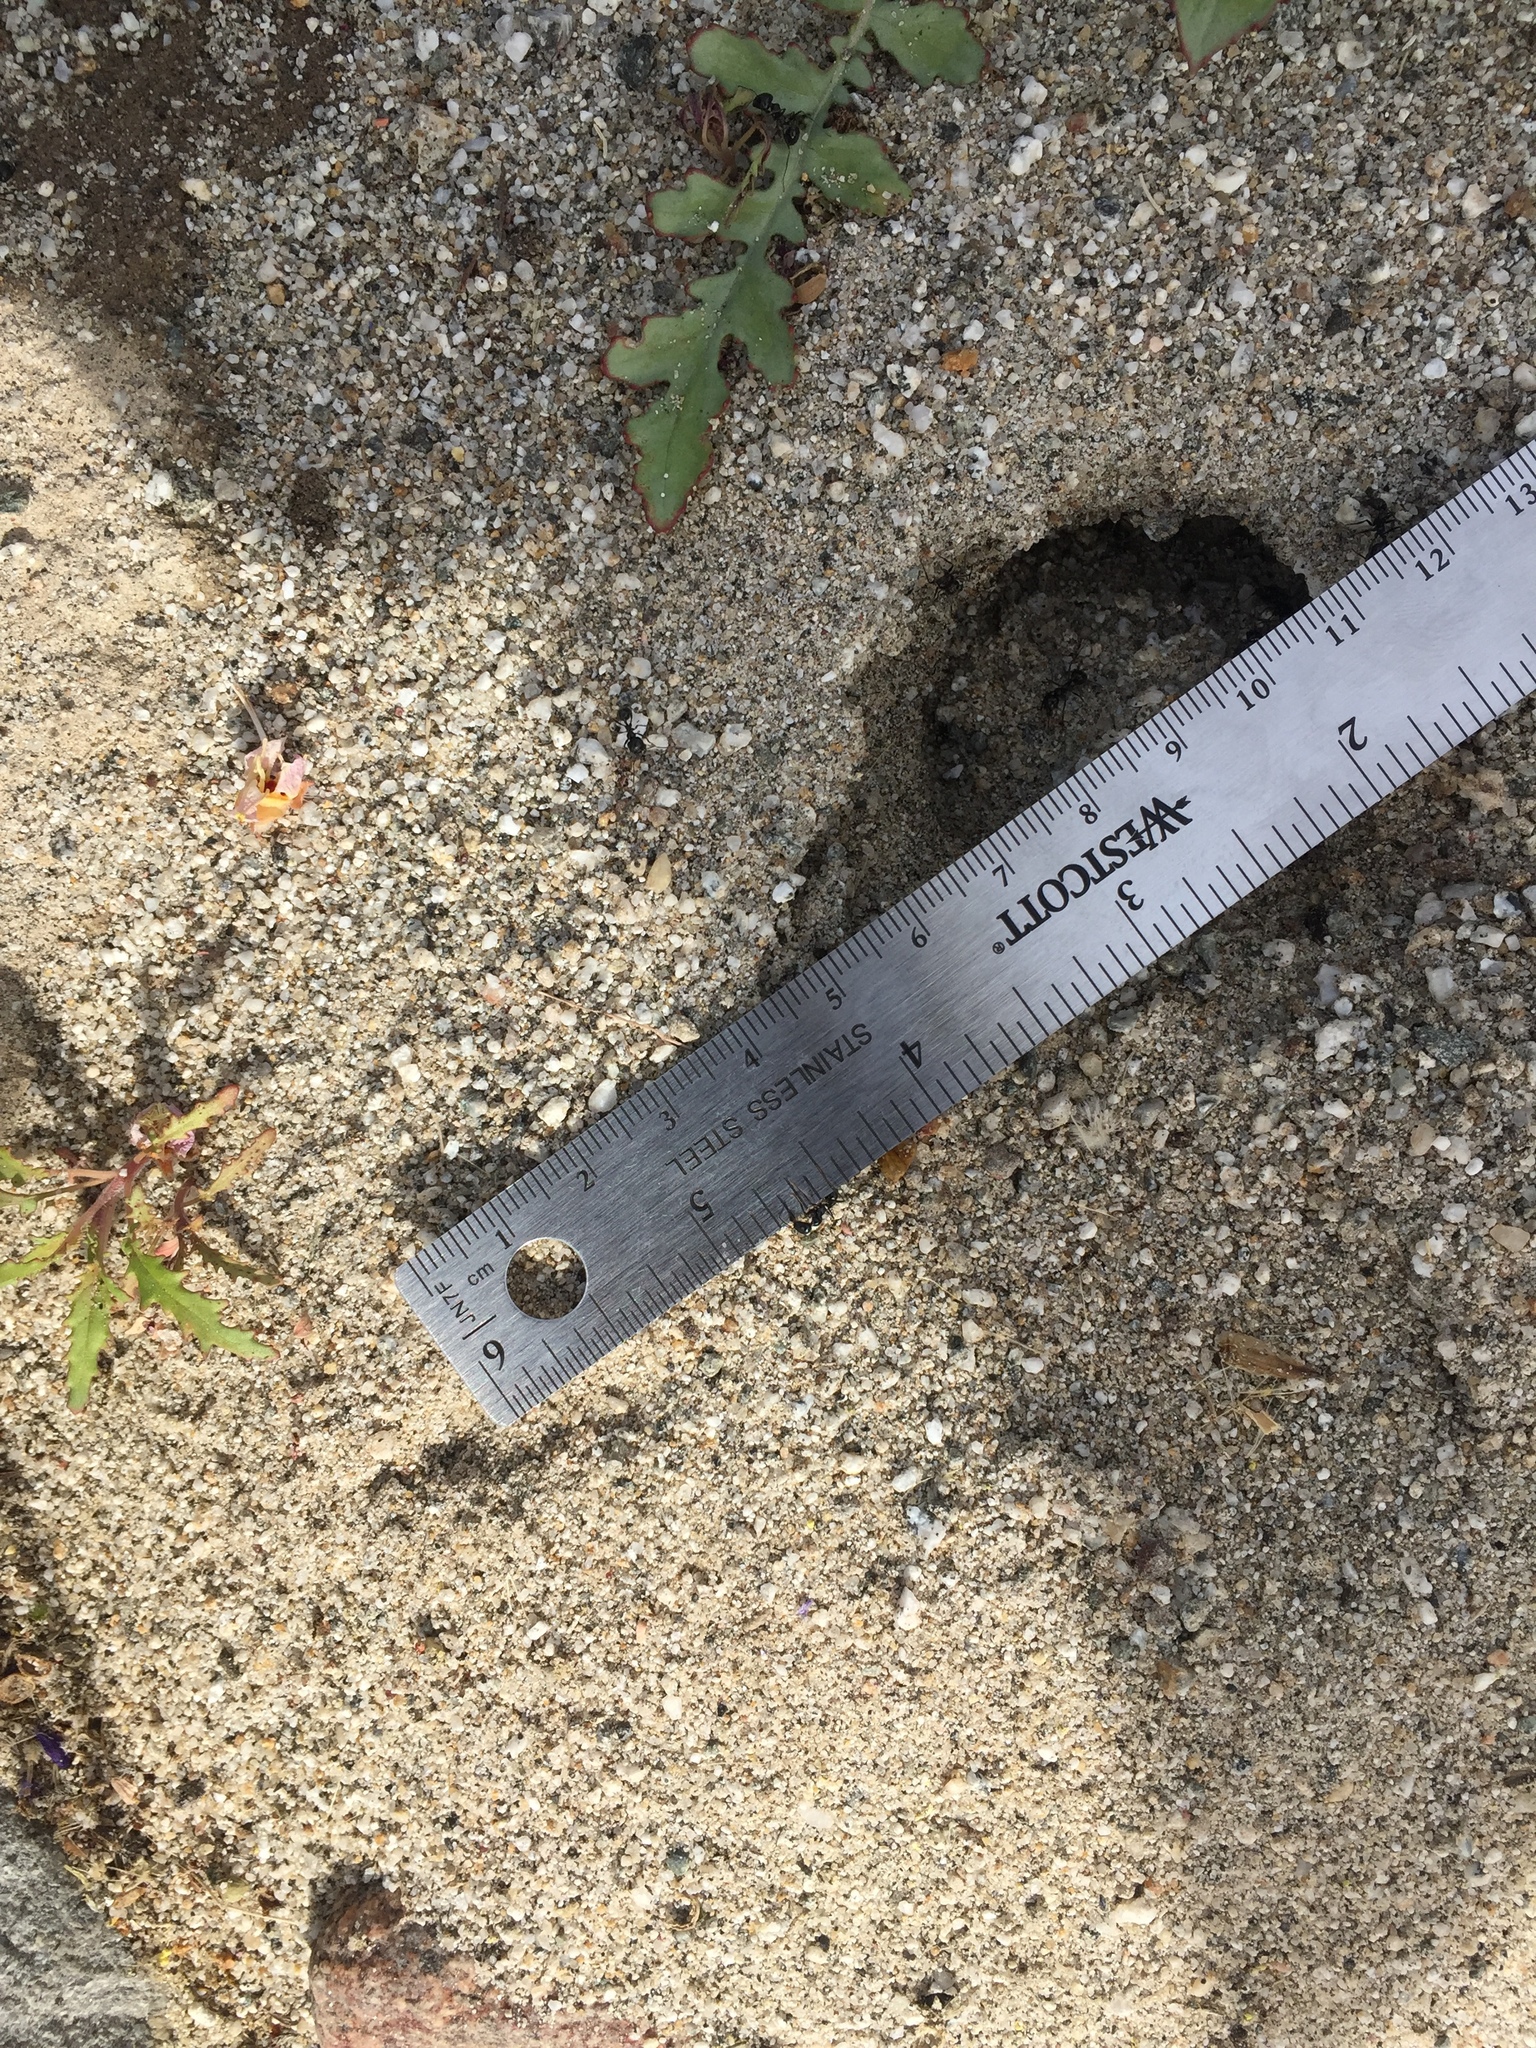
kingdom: Animalia
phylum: Arthropoda
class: Insecta
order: Hymenoptera
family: Formicidae
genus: Messor
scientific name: Messor pergandei
